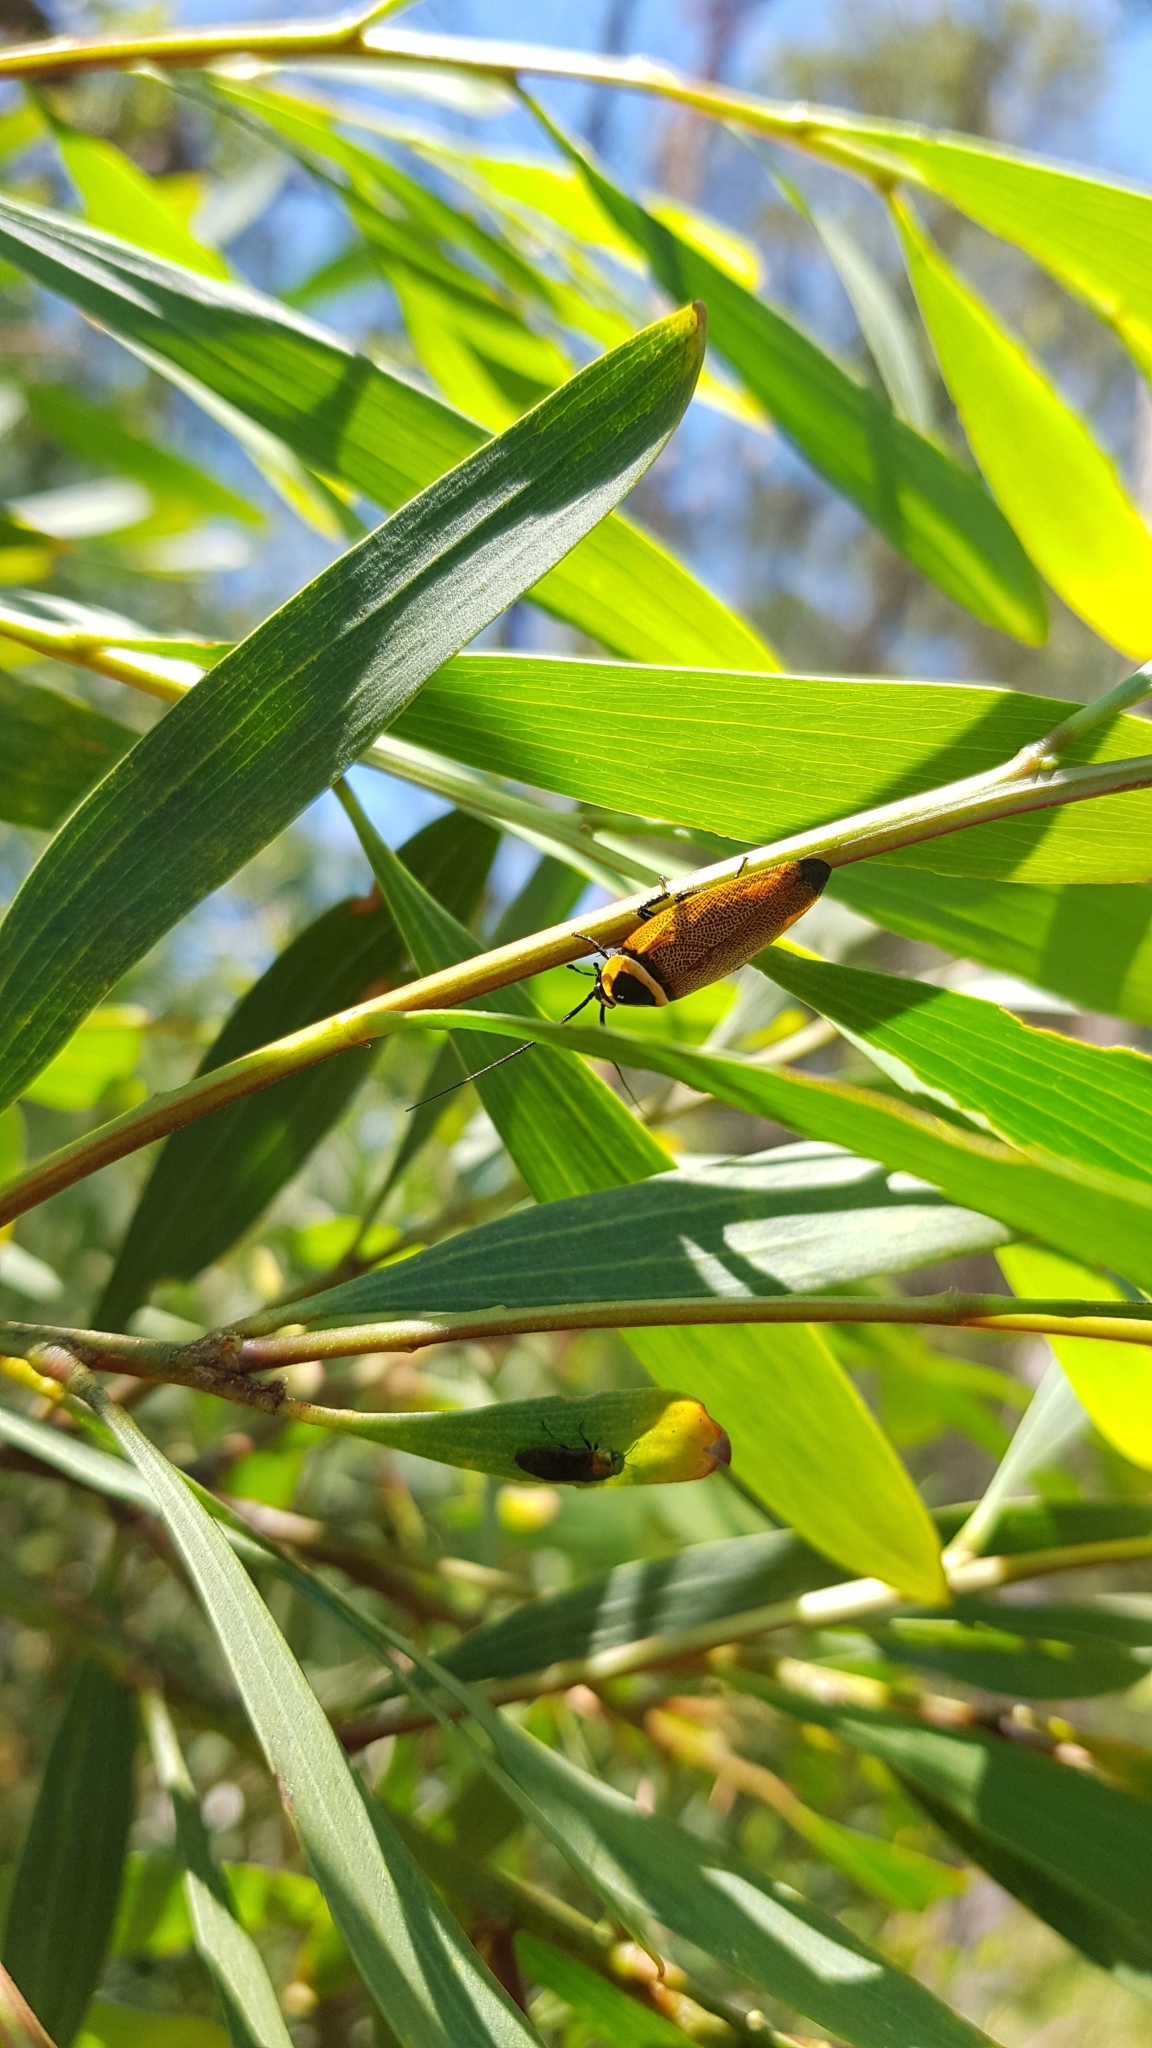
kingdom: Animalia
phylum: Arthropoda
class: Insecta
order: Blattodea
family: Ectobiidae
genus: Ellipsidion
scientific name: Ellipsidion australe
